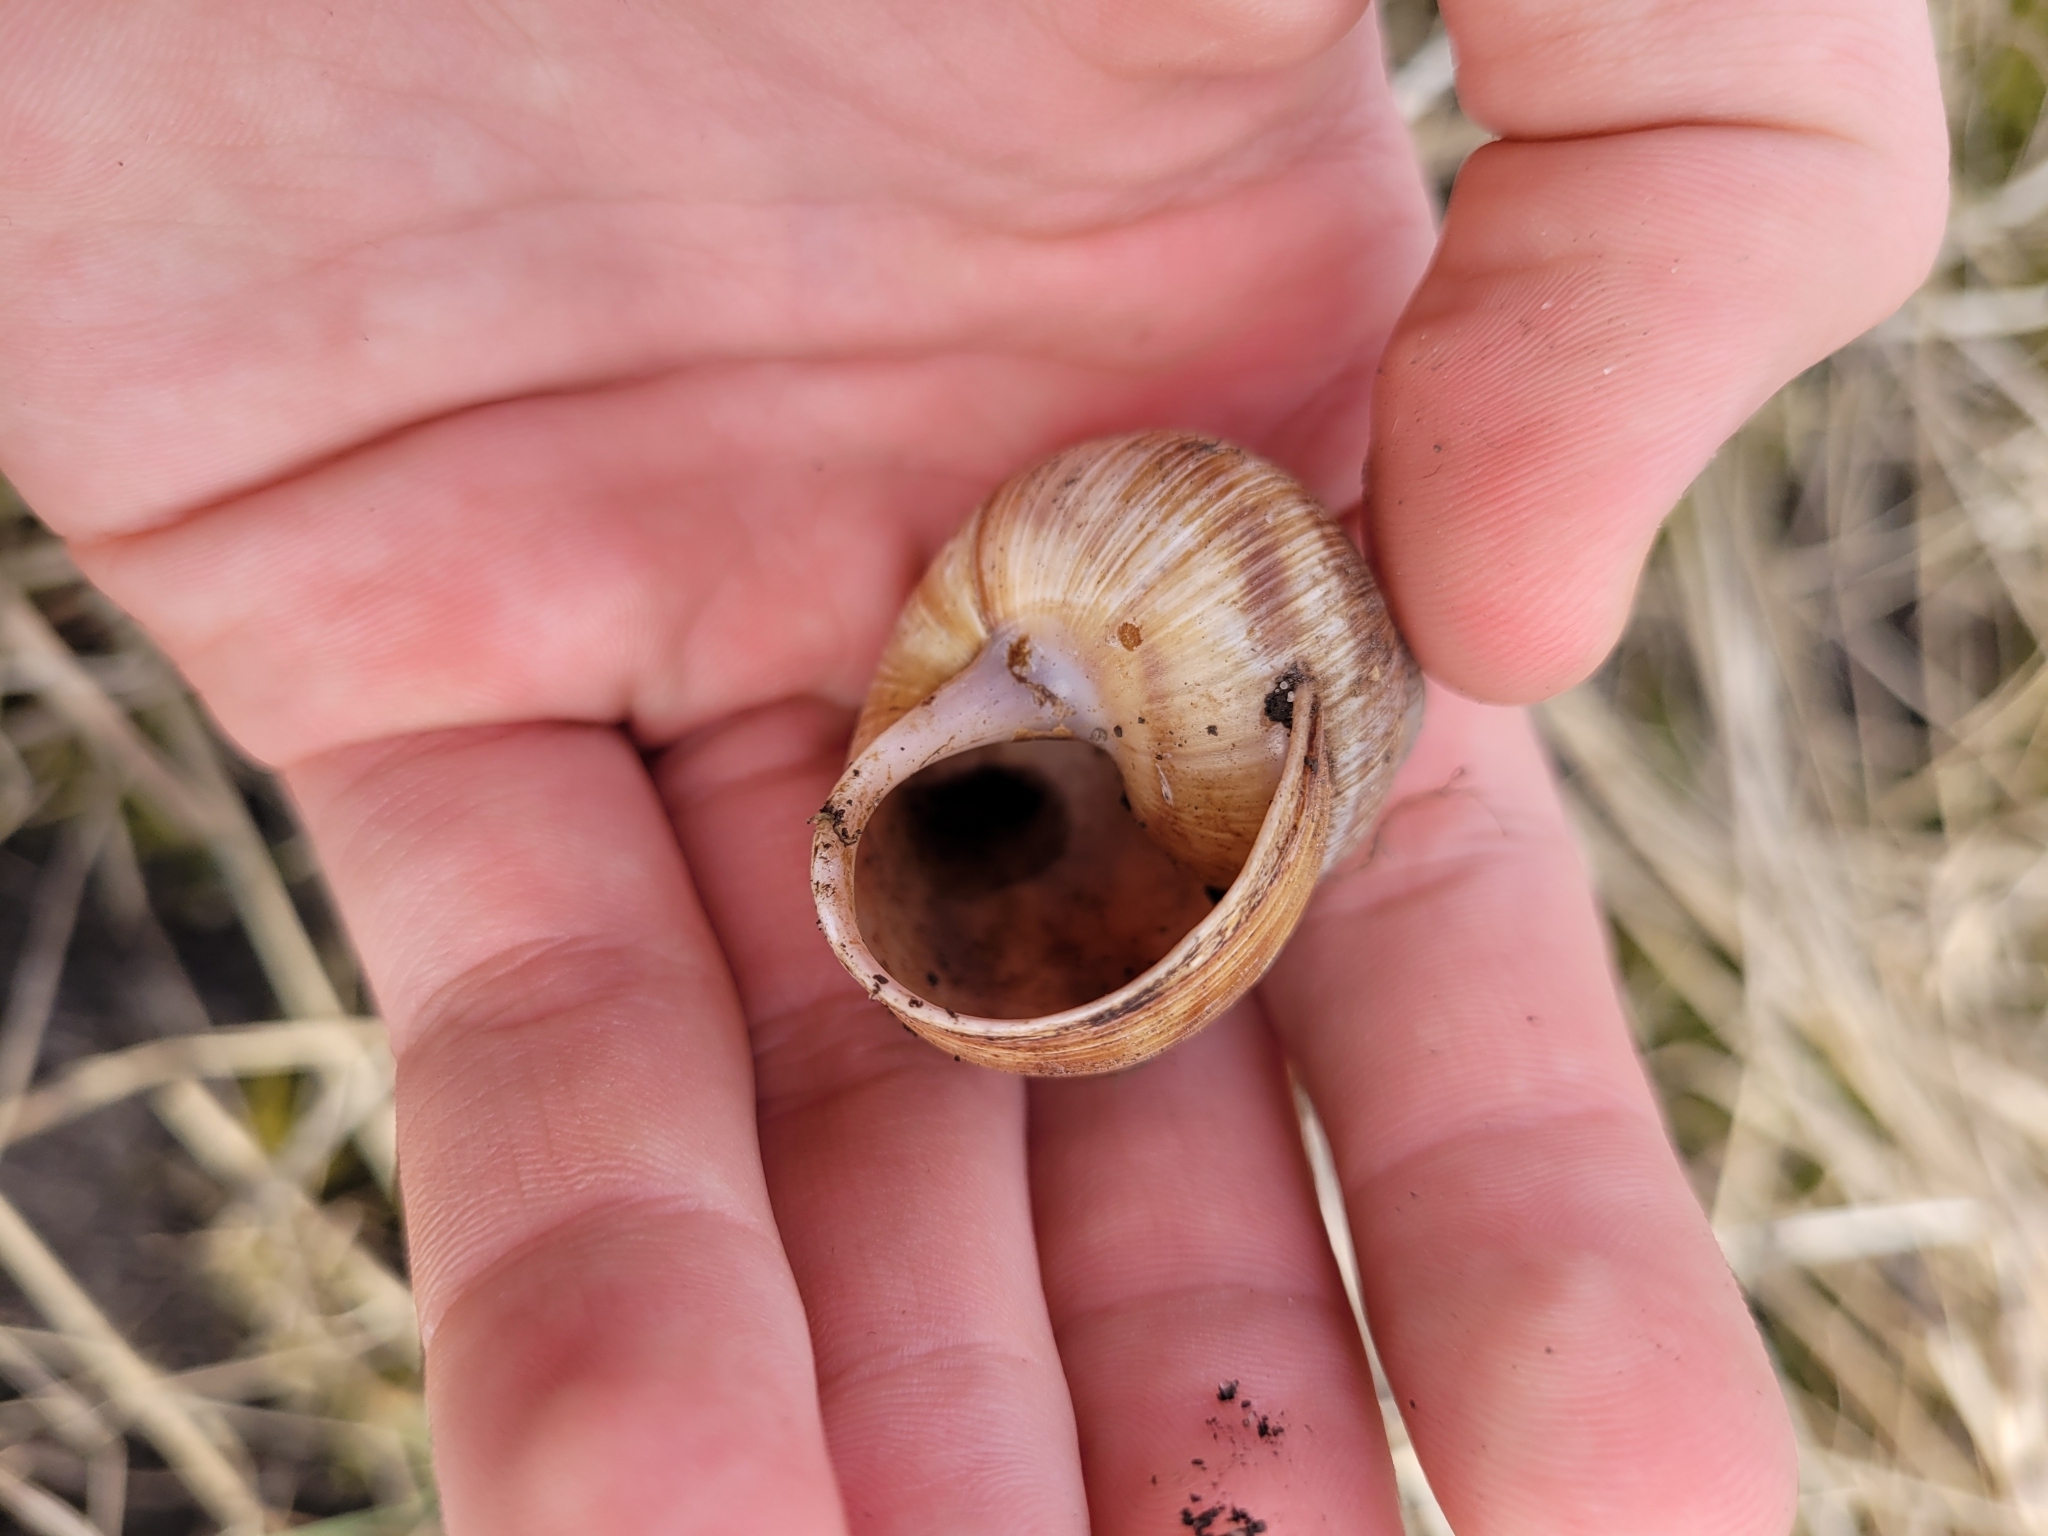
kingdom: Animalia
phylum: Mollusca
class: Gastropoda
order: Stylommatophora
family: Helicidae
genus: Helix
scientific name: Helix pomatia
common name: Roman snail
